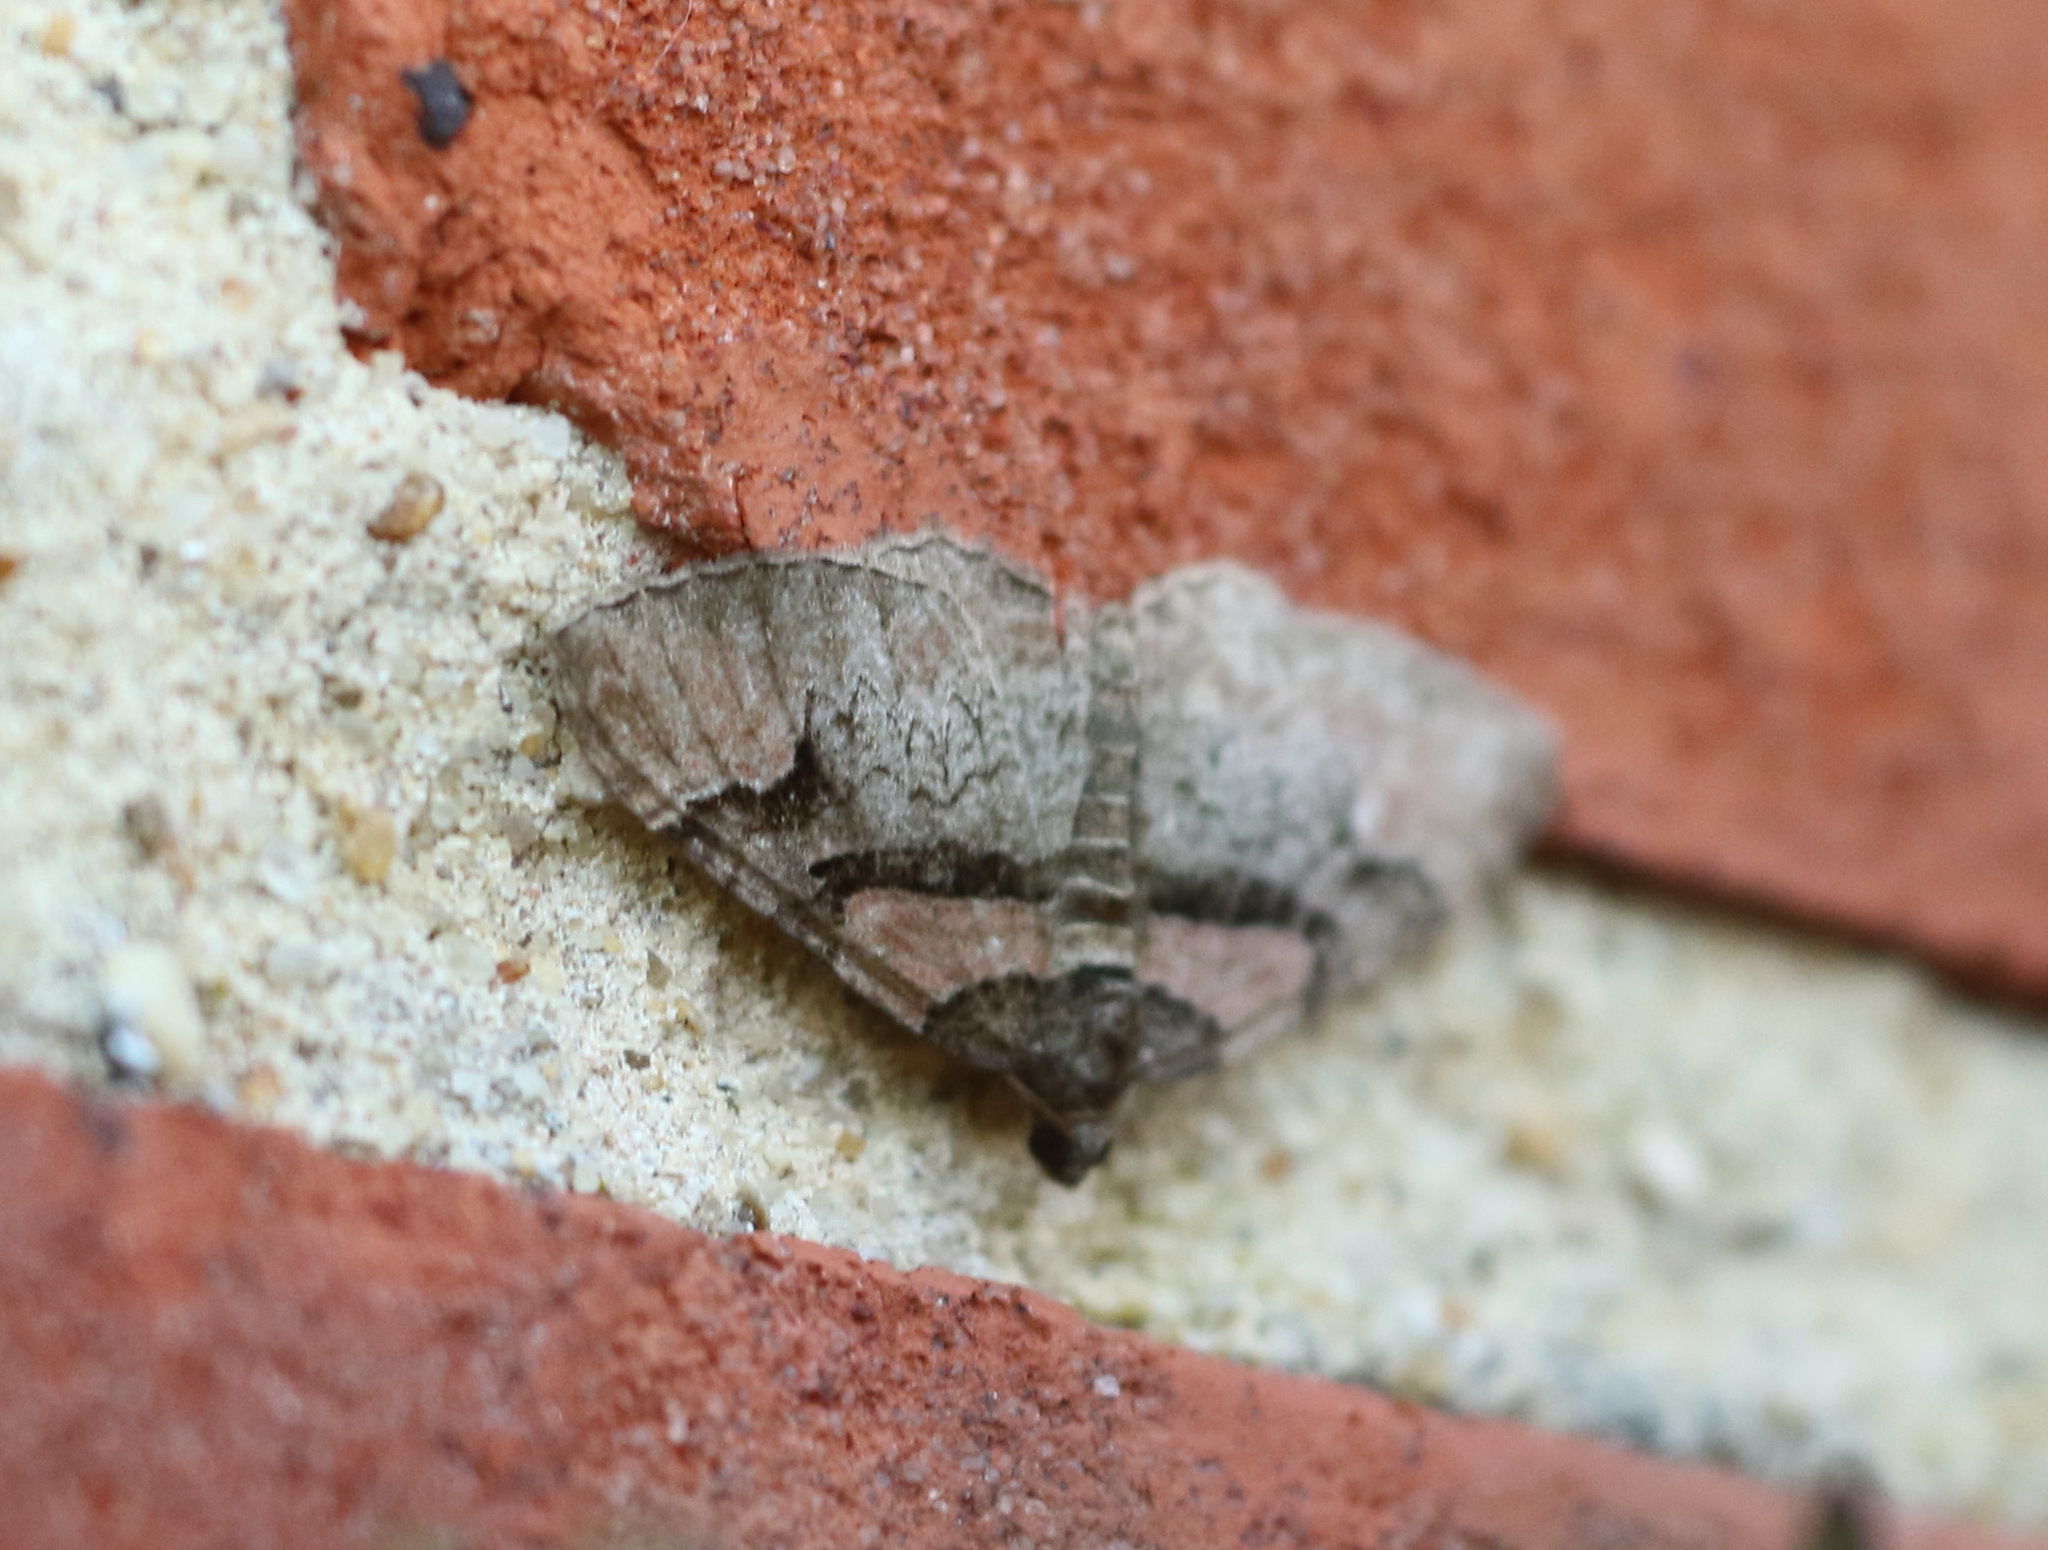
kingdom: Animalia
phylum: Arthropoda
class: Insecta
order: Lepidoptera
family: Geometridae
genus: Catarhoe
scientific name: Catarhoe rubidata
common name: Ruddy carpet
